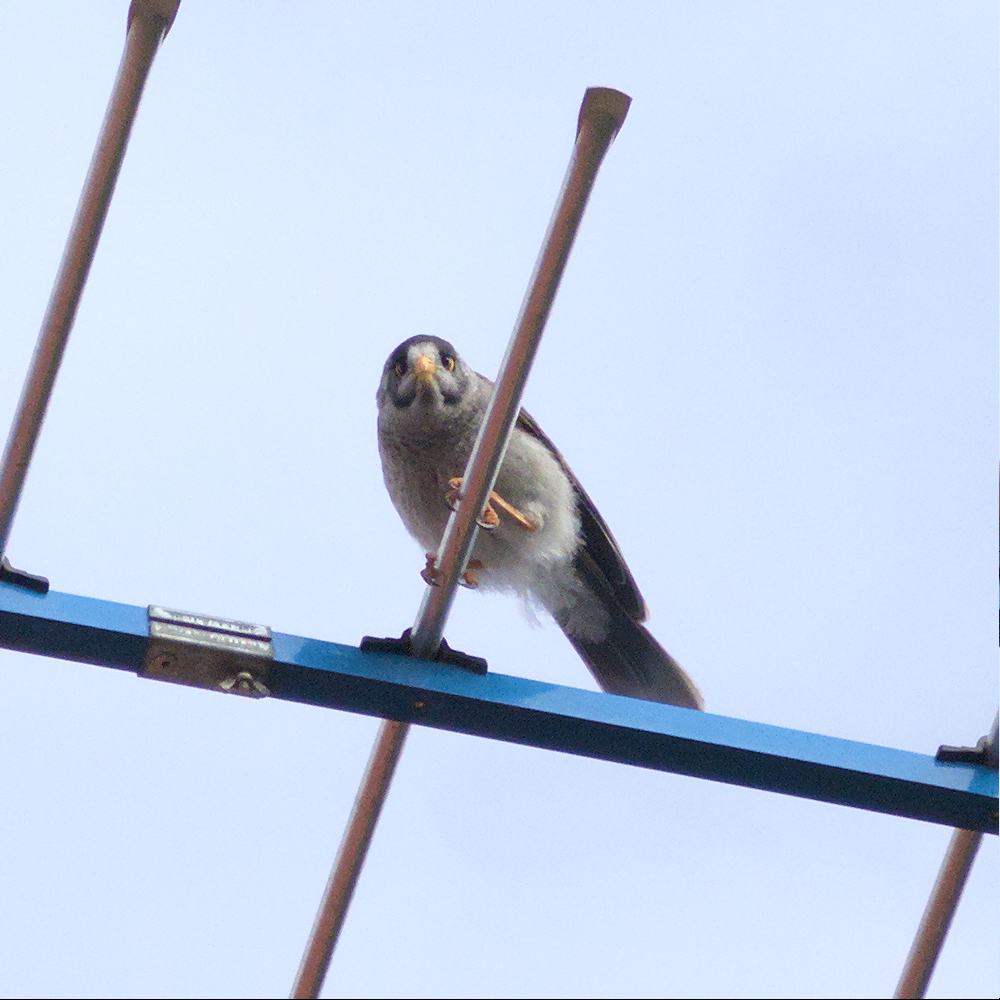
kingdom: Animalia
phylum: Chordata
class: Aves
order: Passeriformes
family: Meliphagidae
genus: Manorina
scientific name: Manorina melanocephala
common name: Noisy miner
